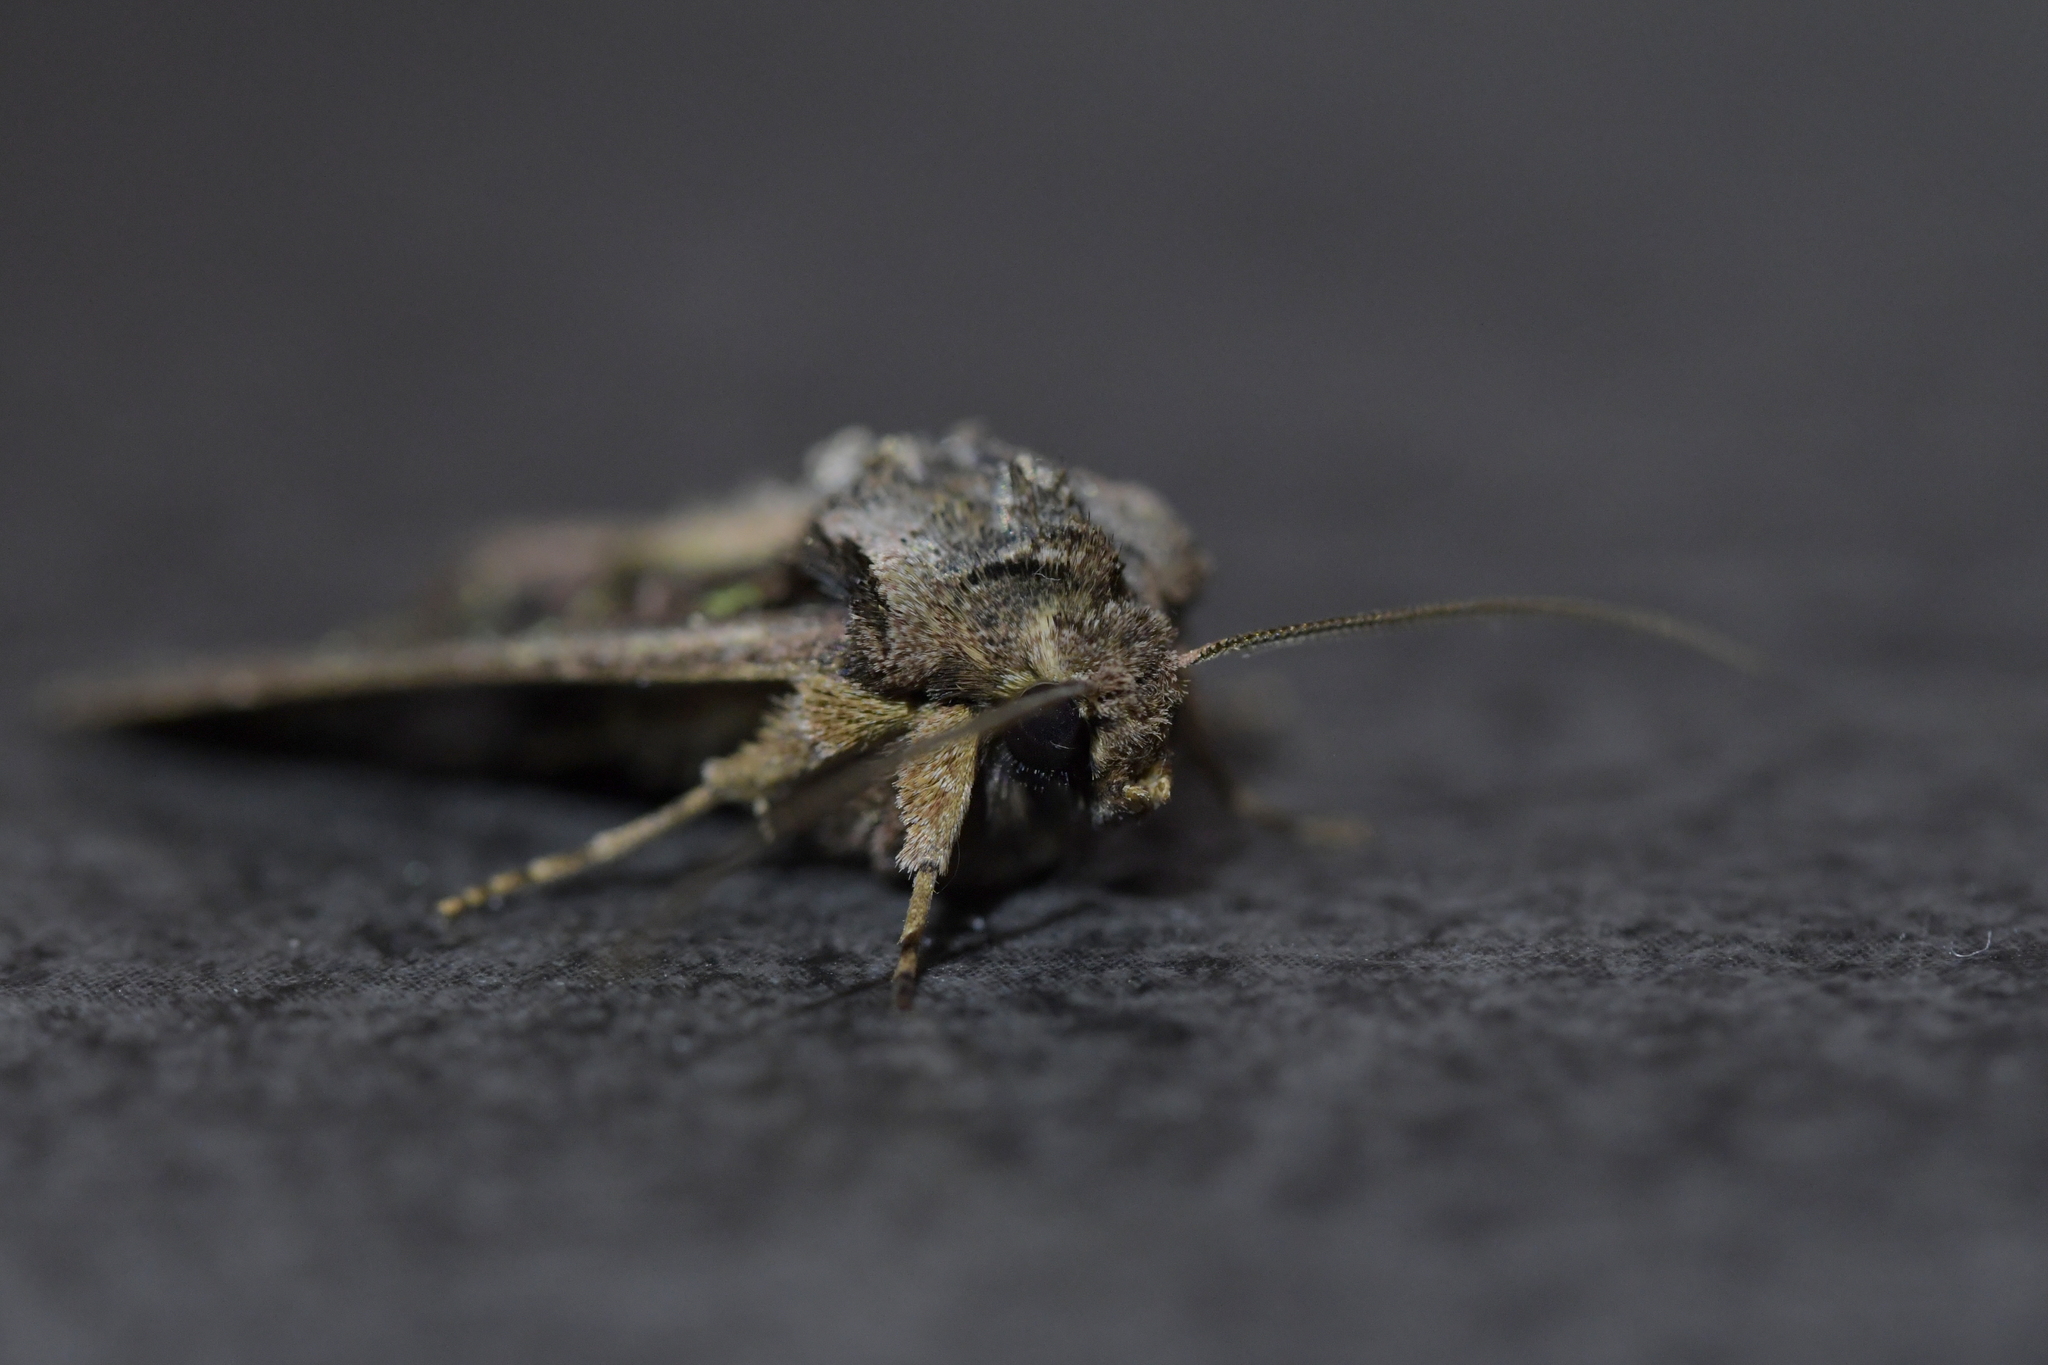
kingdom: Animalia
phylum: Arthropoda
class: Insecta
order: Lepidoptera
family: Noctuidae
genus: Ichneutica
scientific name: Ichneutica insignis
